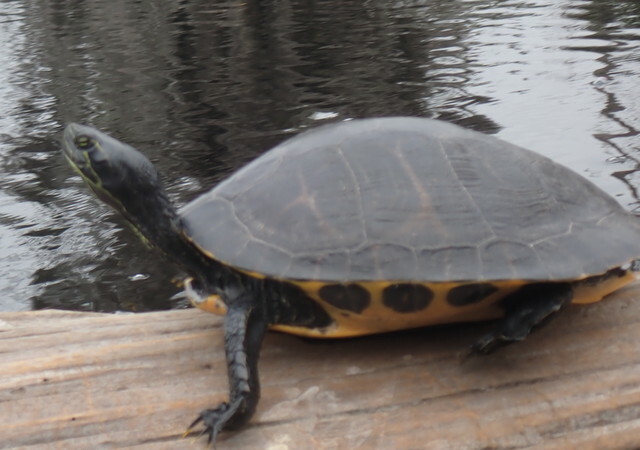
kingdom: Animalia
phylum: Chordata
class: Testudines
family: Emydidae
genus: Pseudemys
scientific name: Pseudemys concinna
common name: Eastern river cooter
